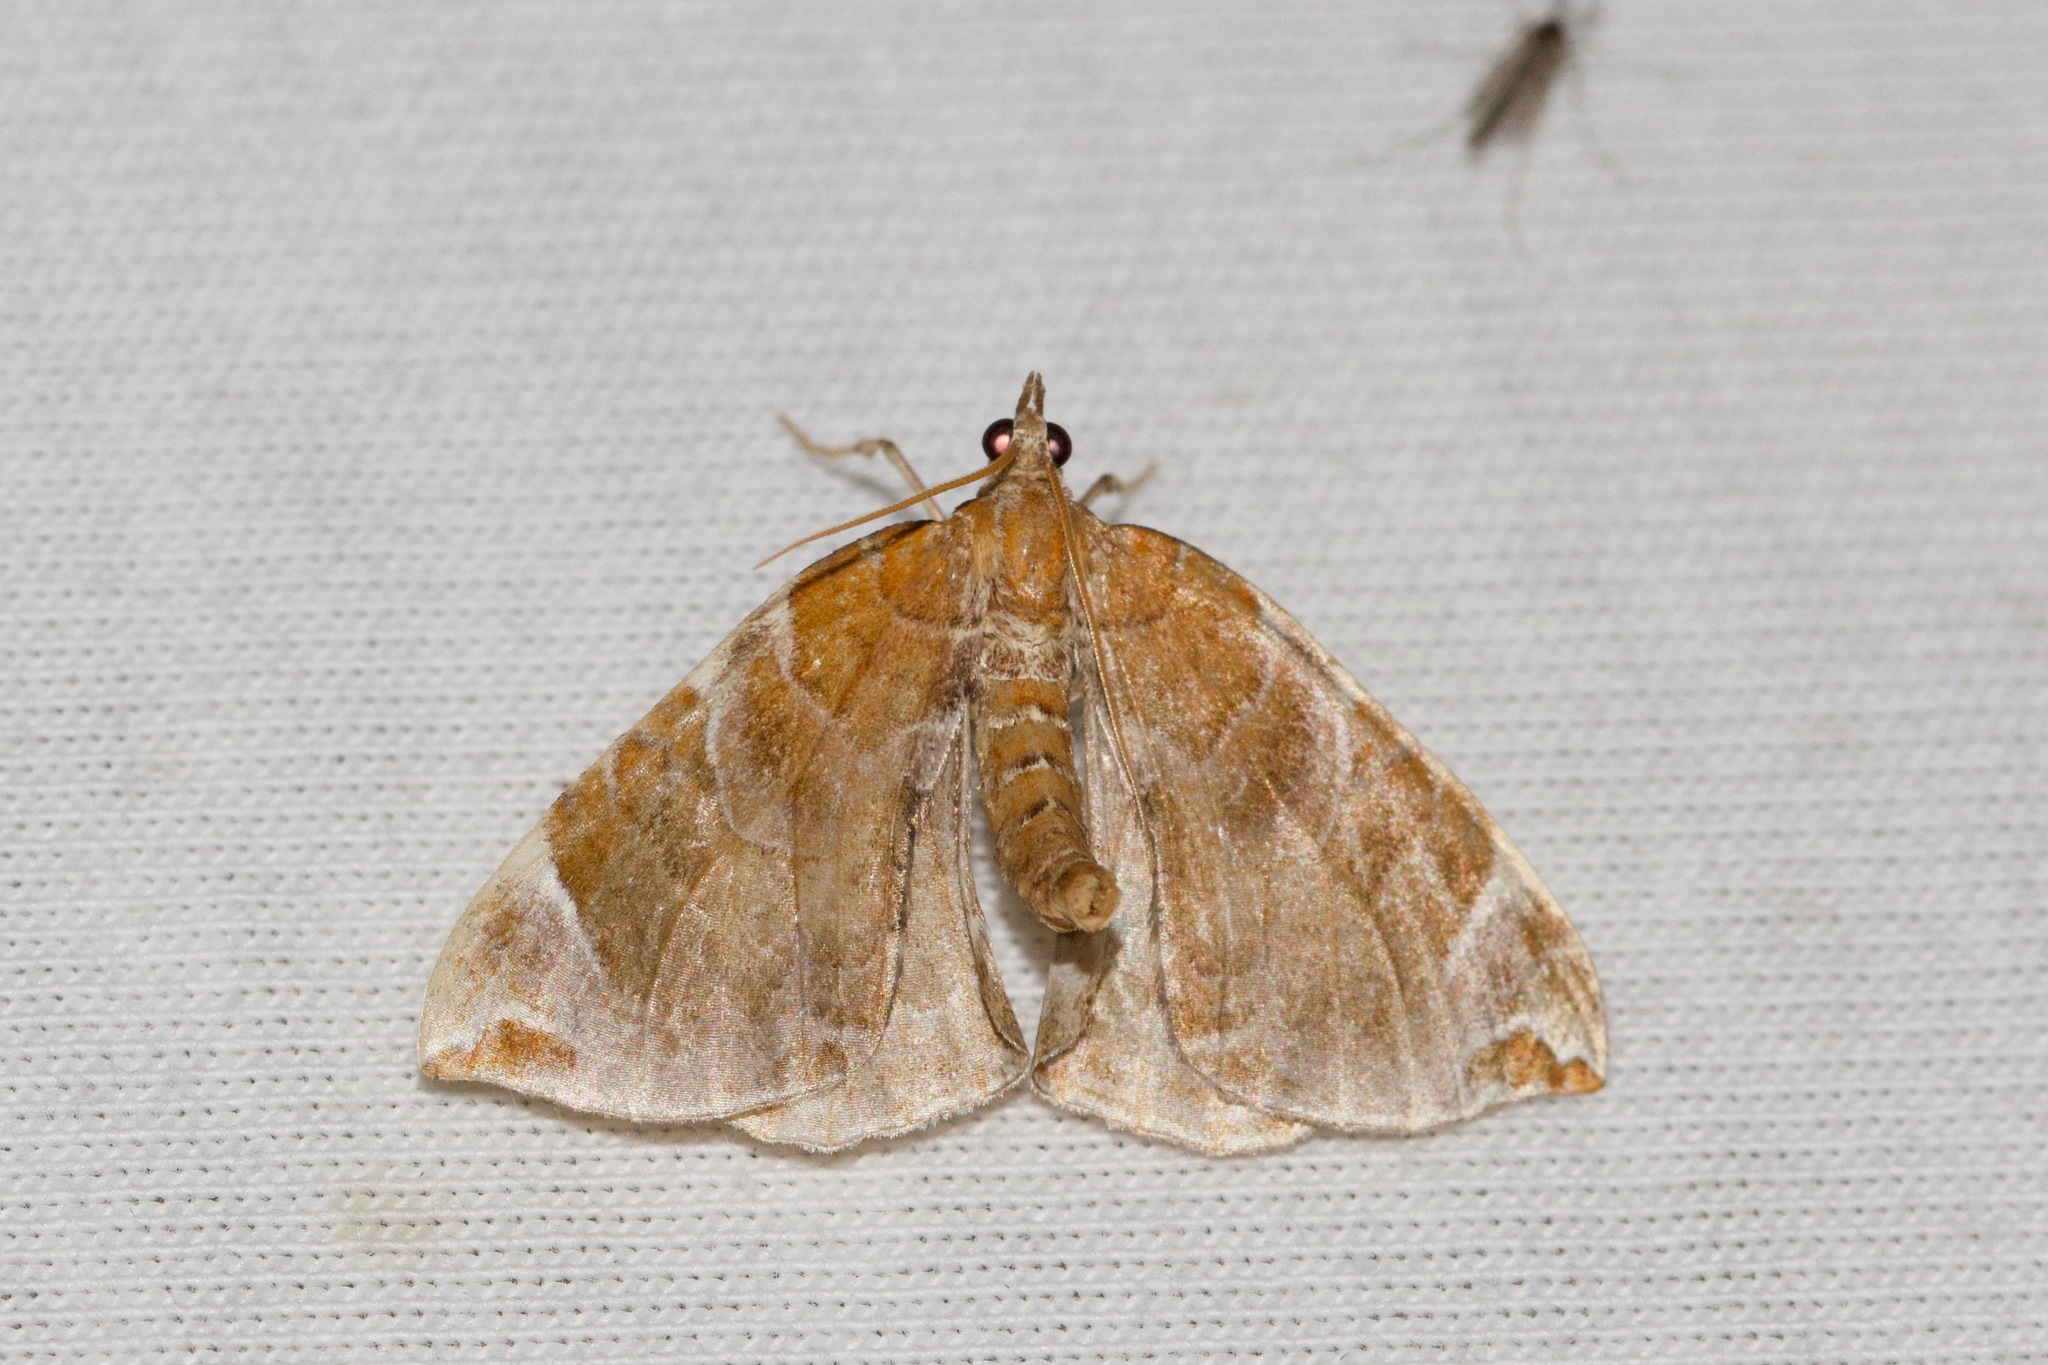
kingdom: Animalia
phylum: Arthropoda
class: Insecta
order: Lepidoptera
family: Geometridae
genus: Eulithis
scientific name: Eulithis molliculata
